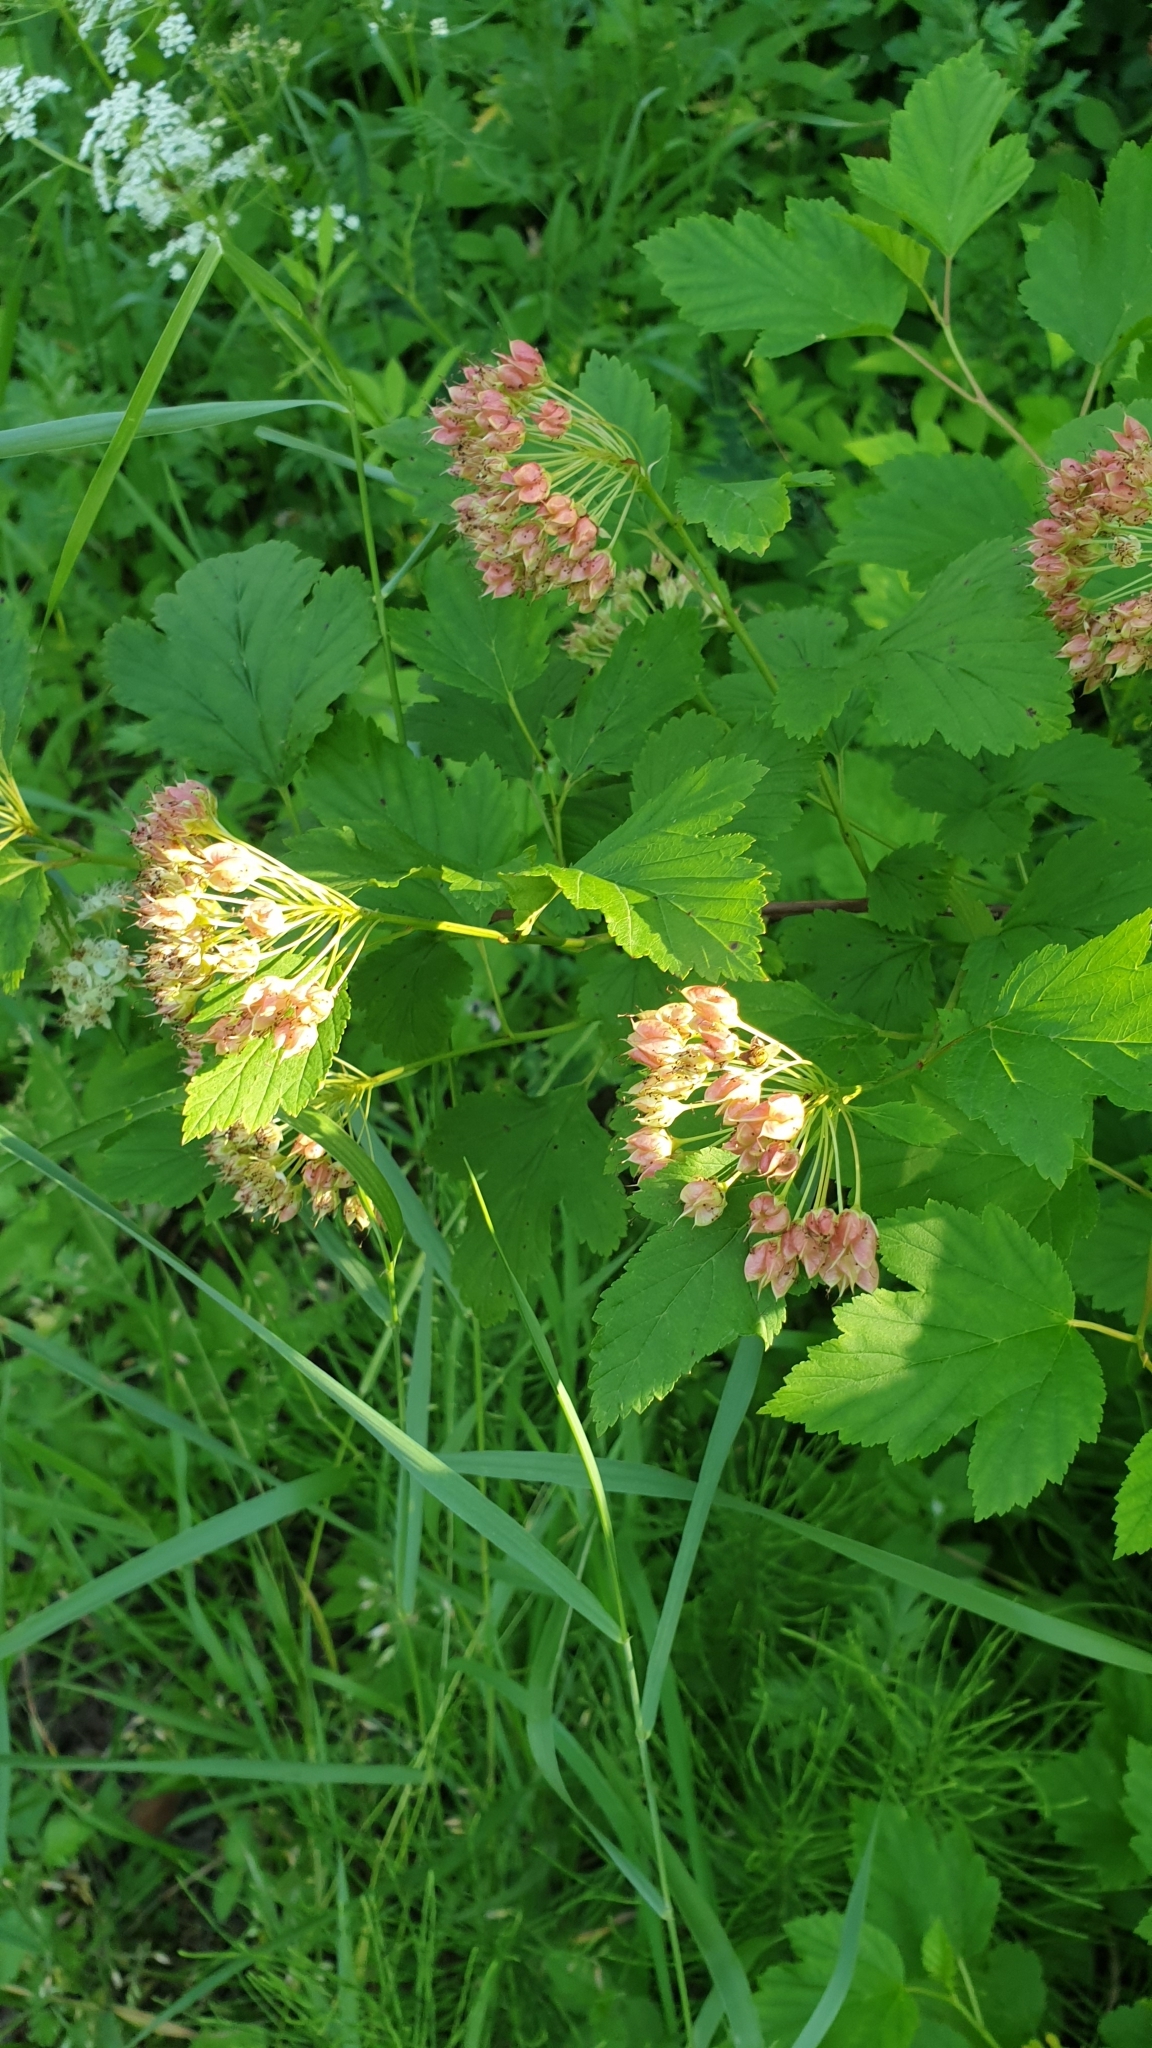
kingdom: Plantae
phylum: Tracheophyta
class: Magnoliopsida
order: Rosales
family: Rosaceae
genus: Physocarpus
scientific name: Physocarpus opulifolius
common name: Ninebark
